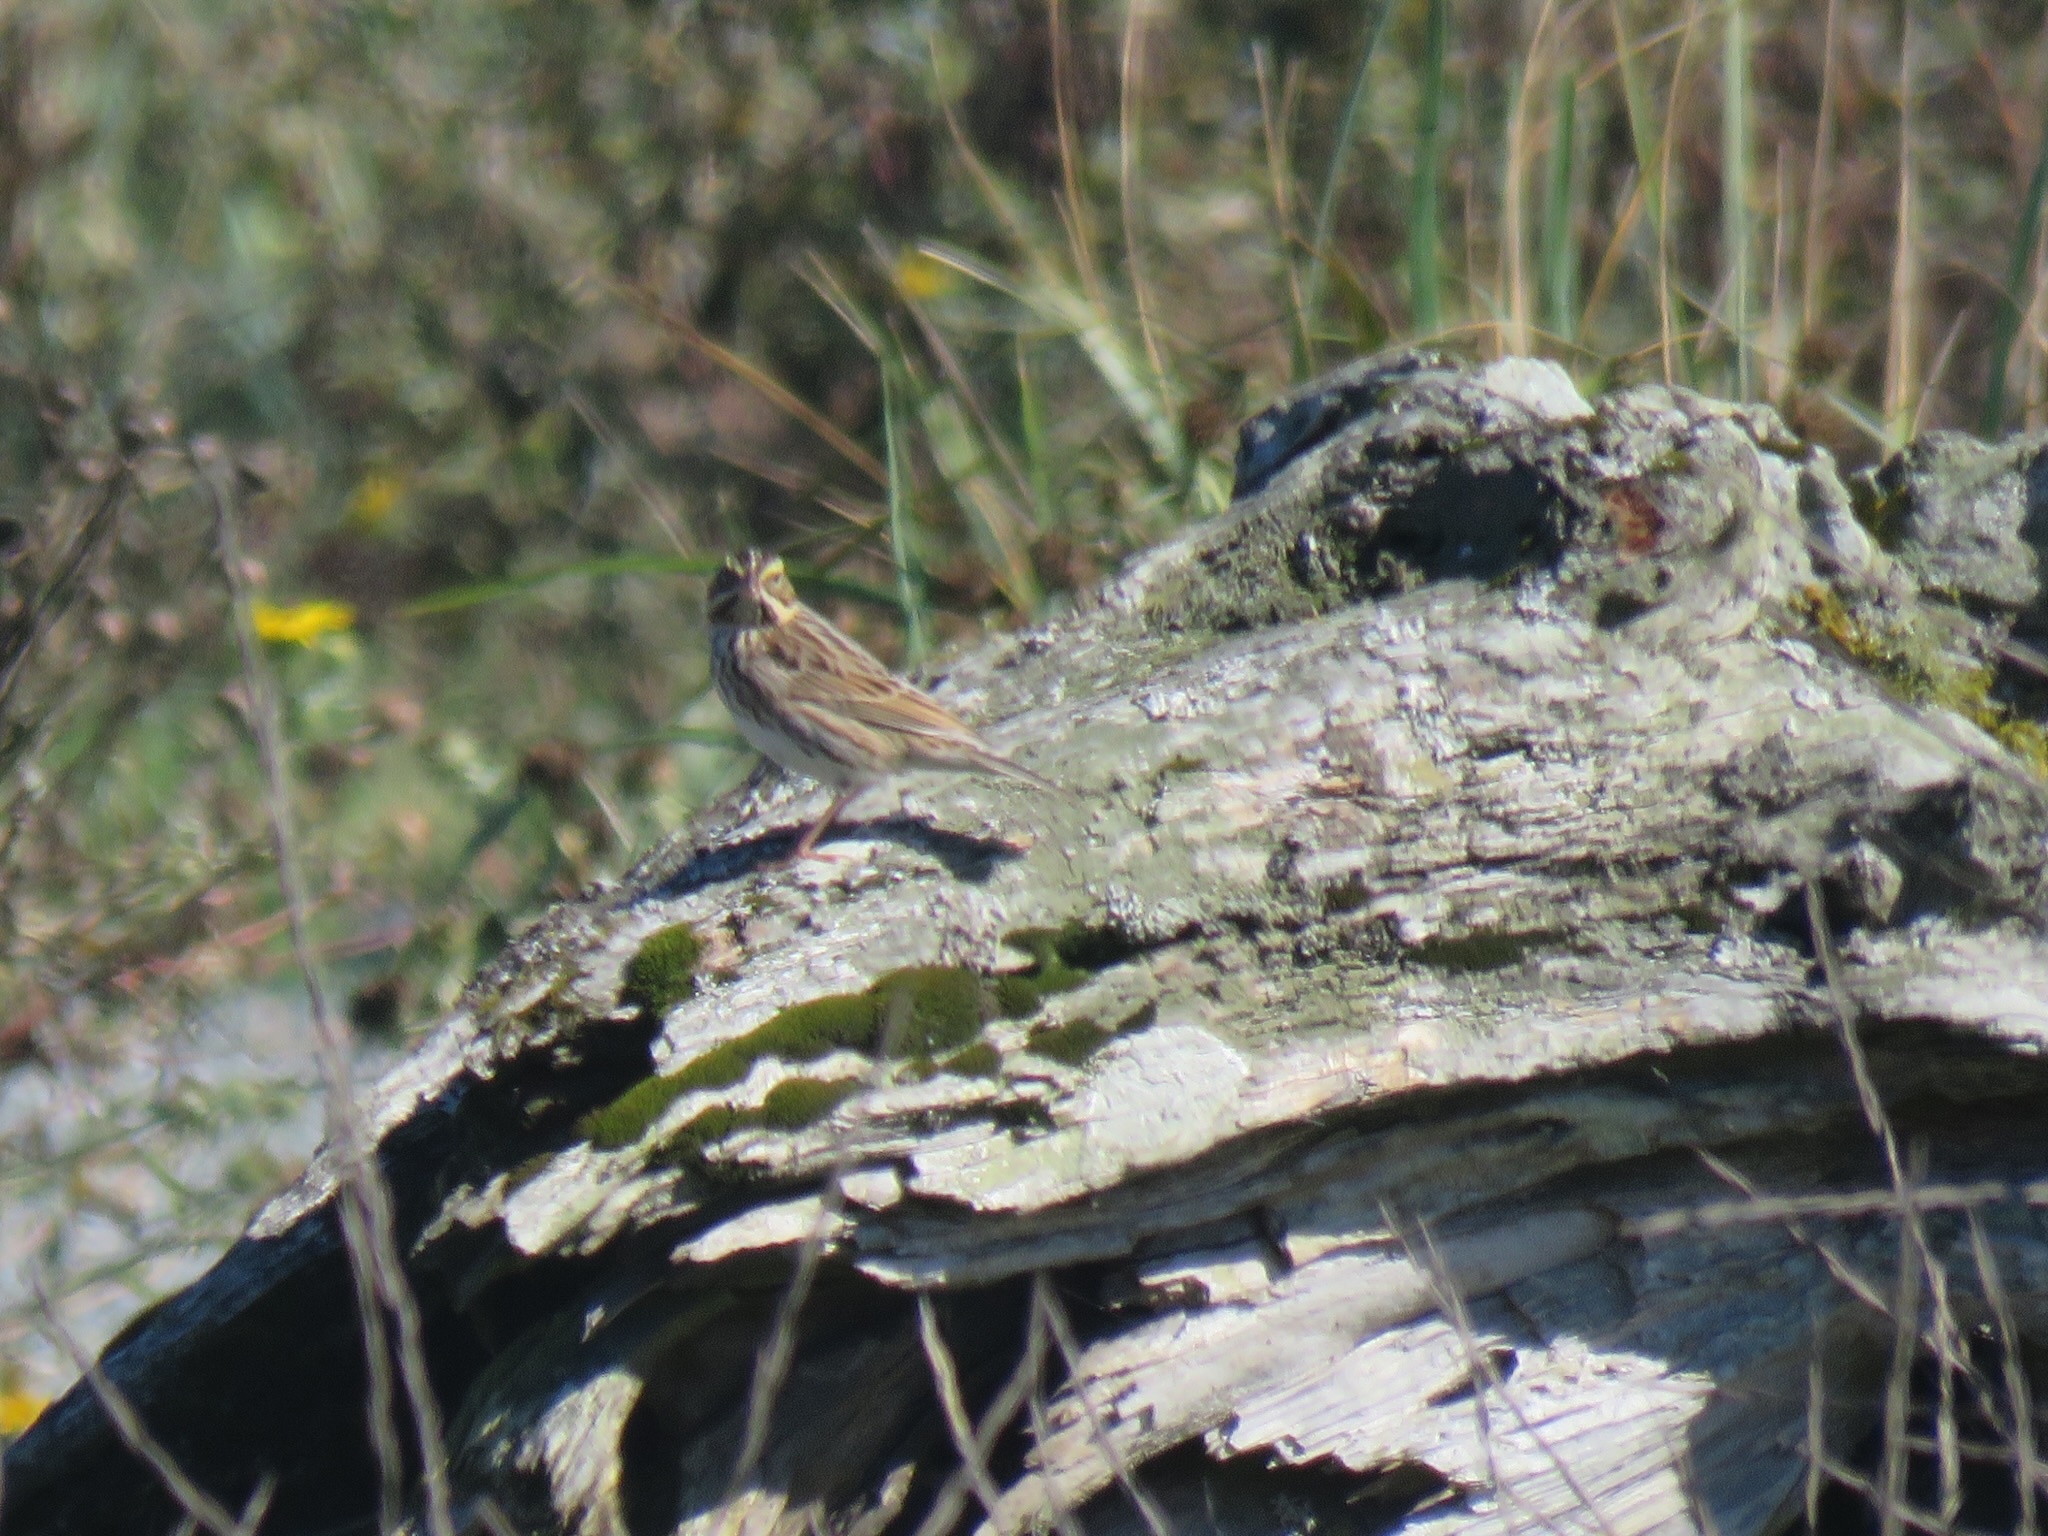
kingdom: Animalia
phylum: Chordata
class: Aves
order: Passeriformes
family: Passerellidae
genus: Passerculus
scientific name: Passerculus sandwichensis
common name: Savannah sparrow
